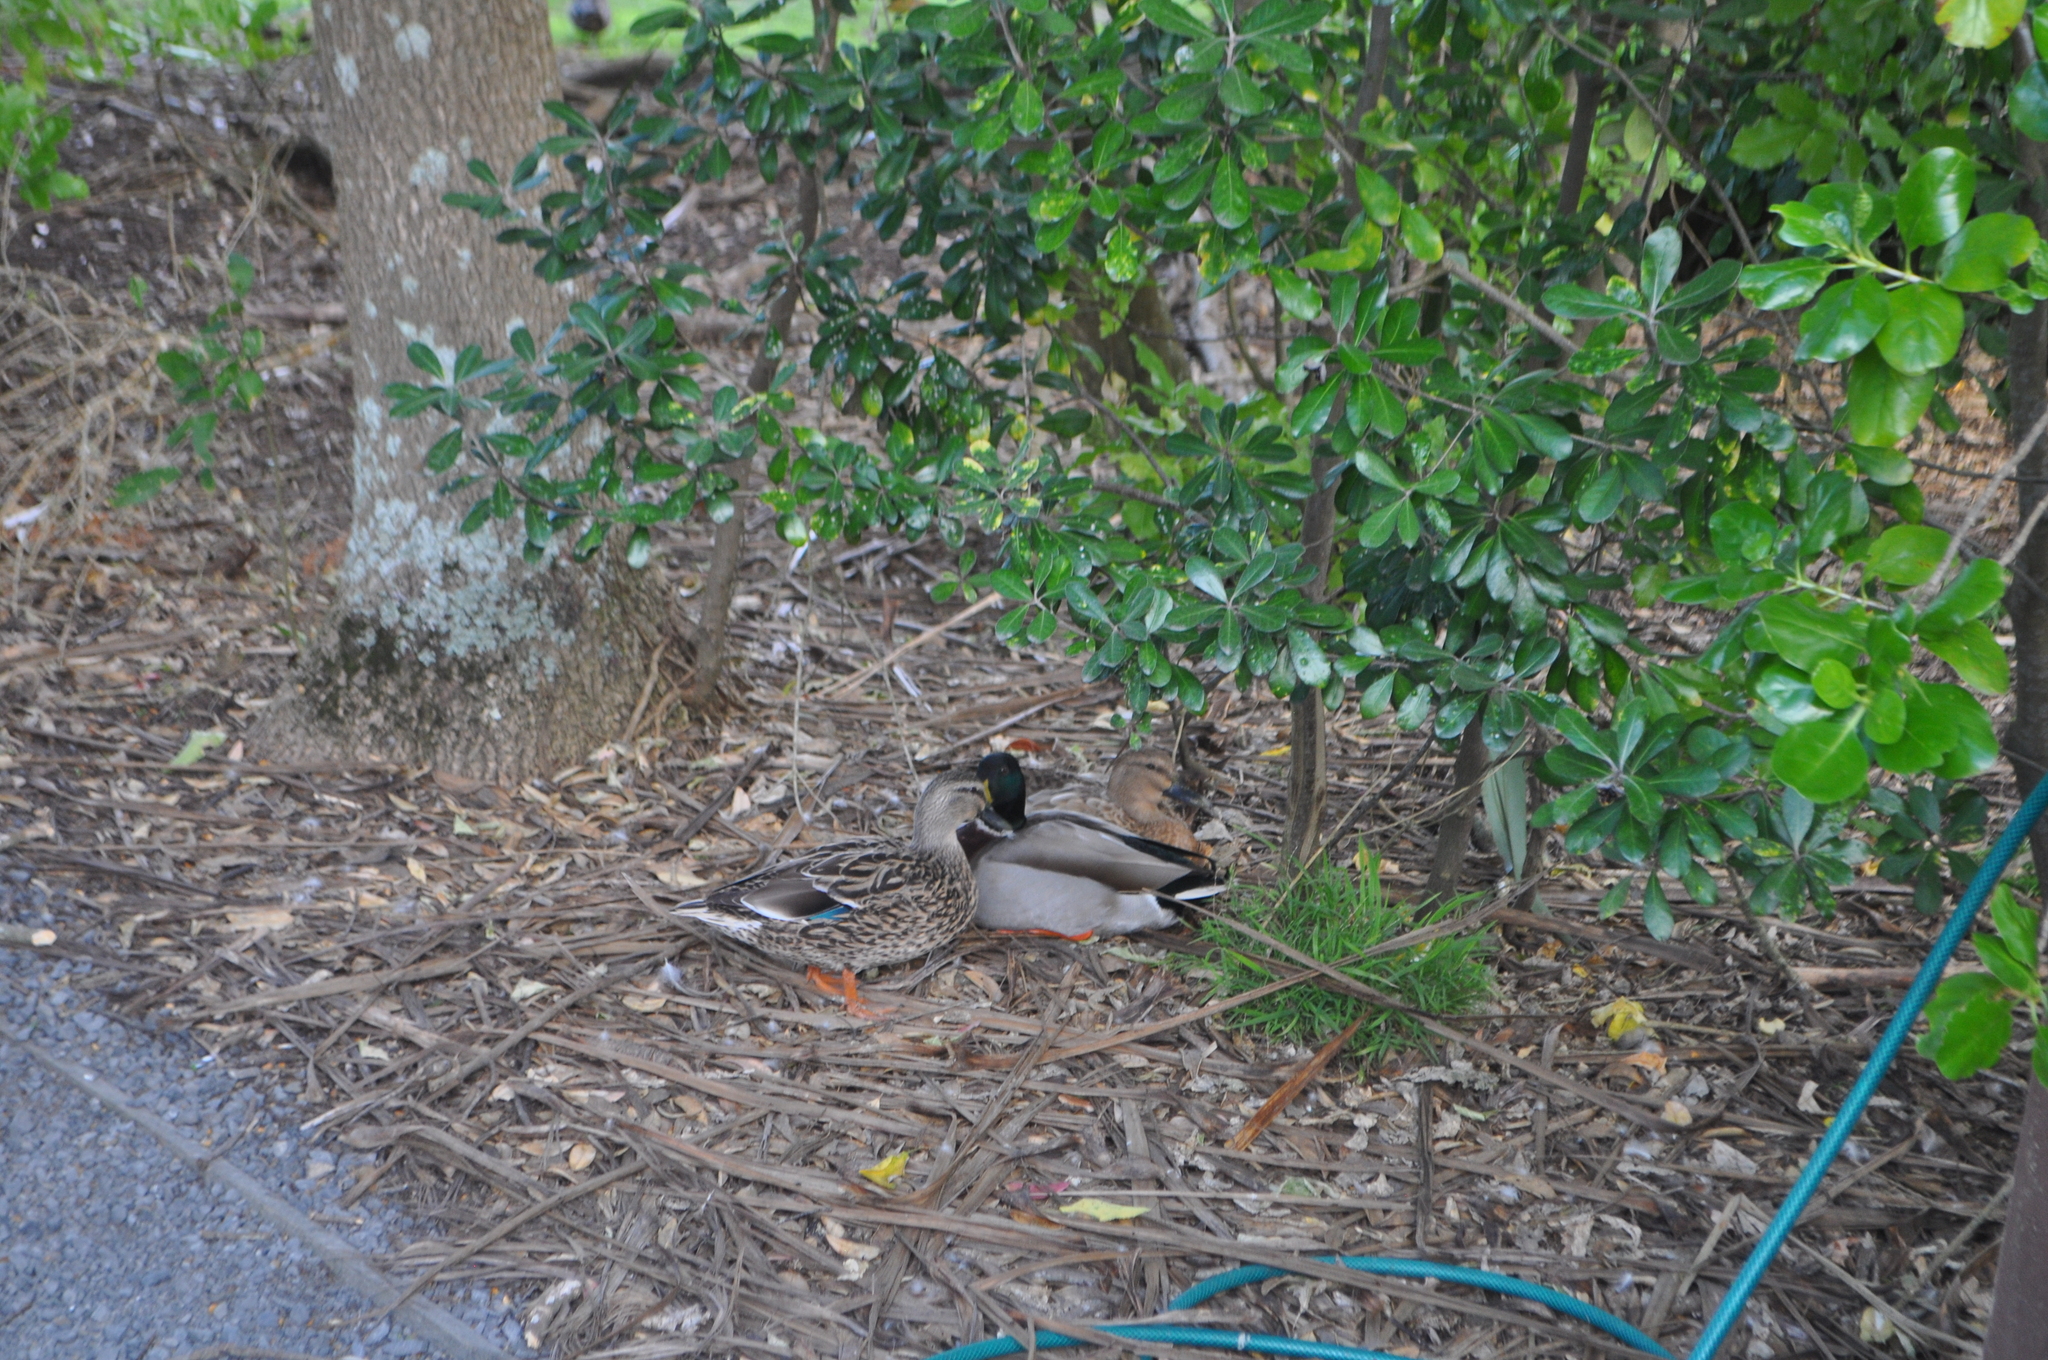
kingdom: Animalia
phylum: Chordata
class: Aves
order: Anseriformes
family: Anatidae
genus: Anas
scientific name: Anas platyrhynchos
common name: Mallard
